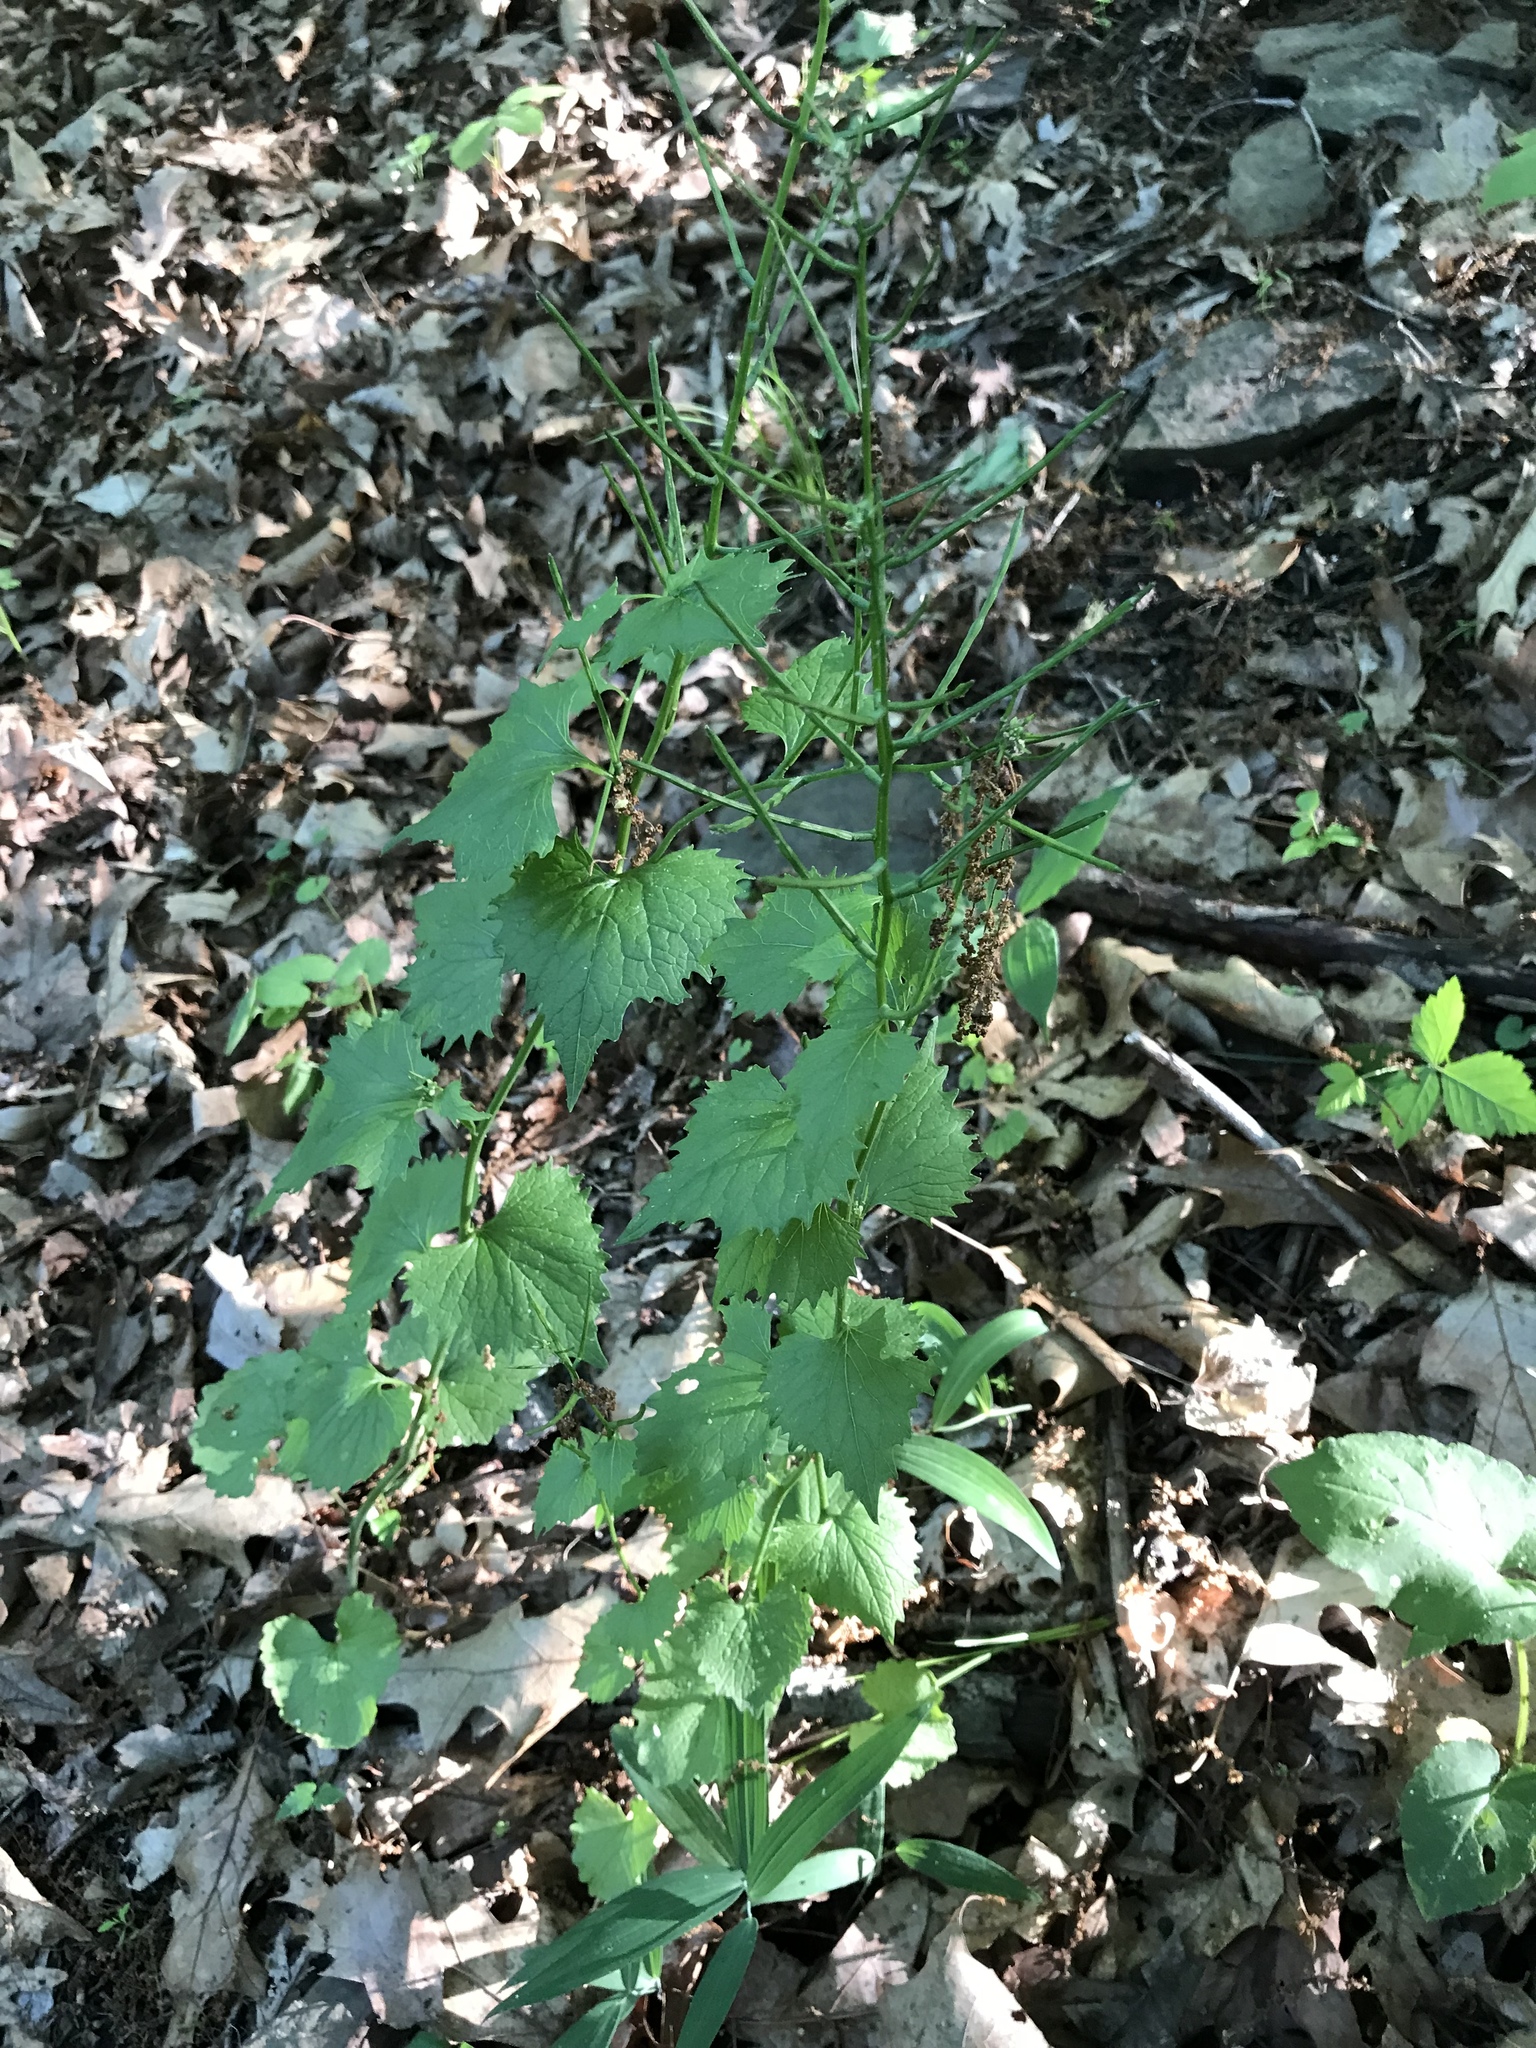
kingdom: Plantae
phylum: Tracheophyta
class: Magnoliopsida
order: Brassicales
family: Brassicaceae
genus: Alliaria
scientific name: Alliaria petiolata
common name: Garlic mustard
